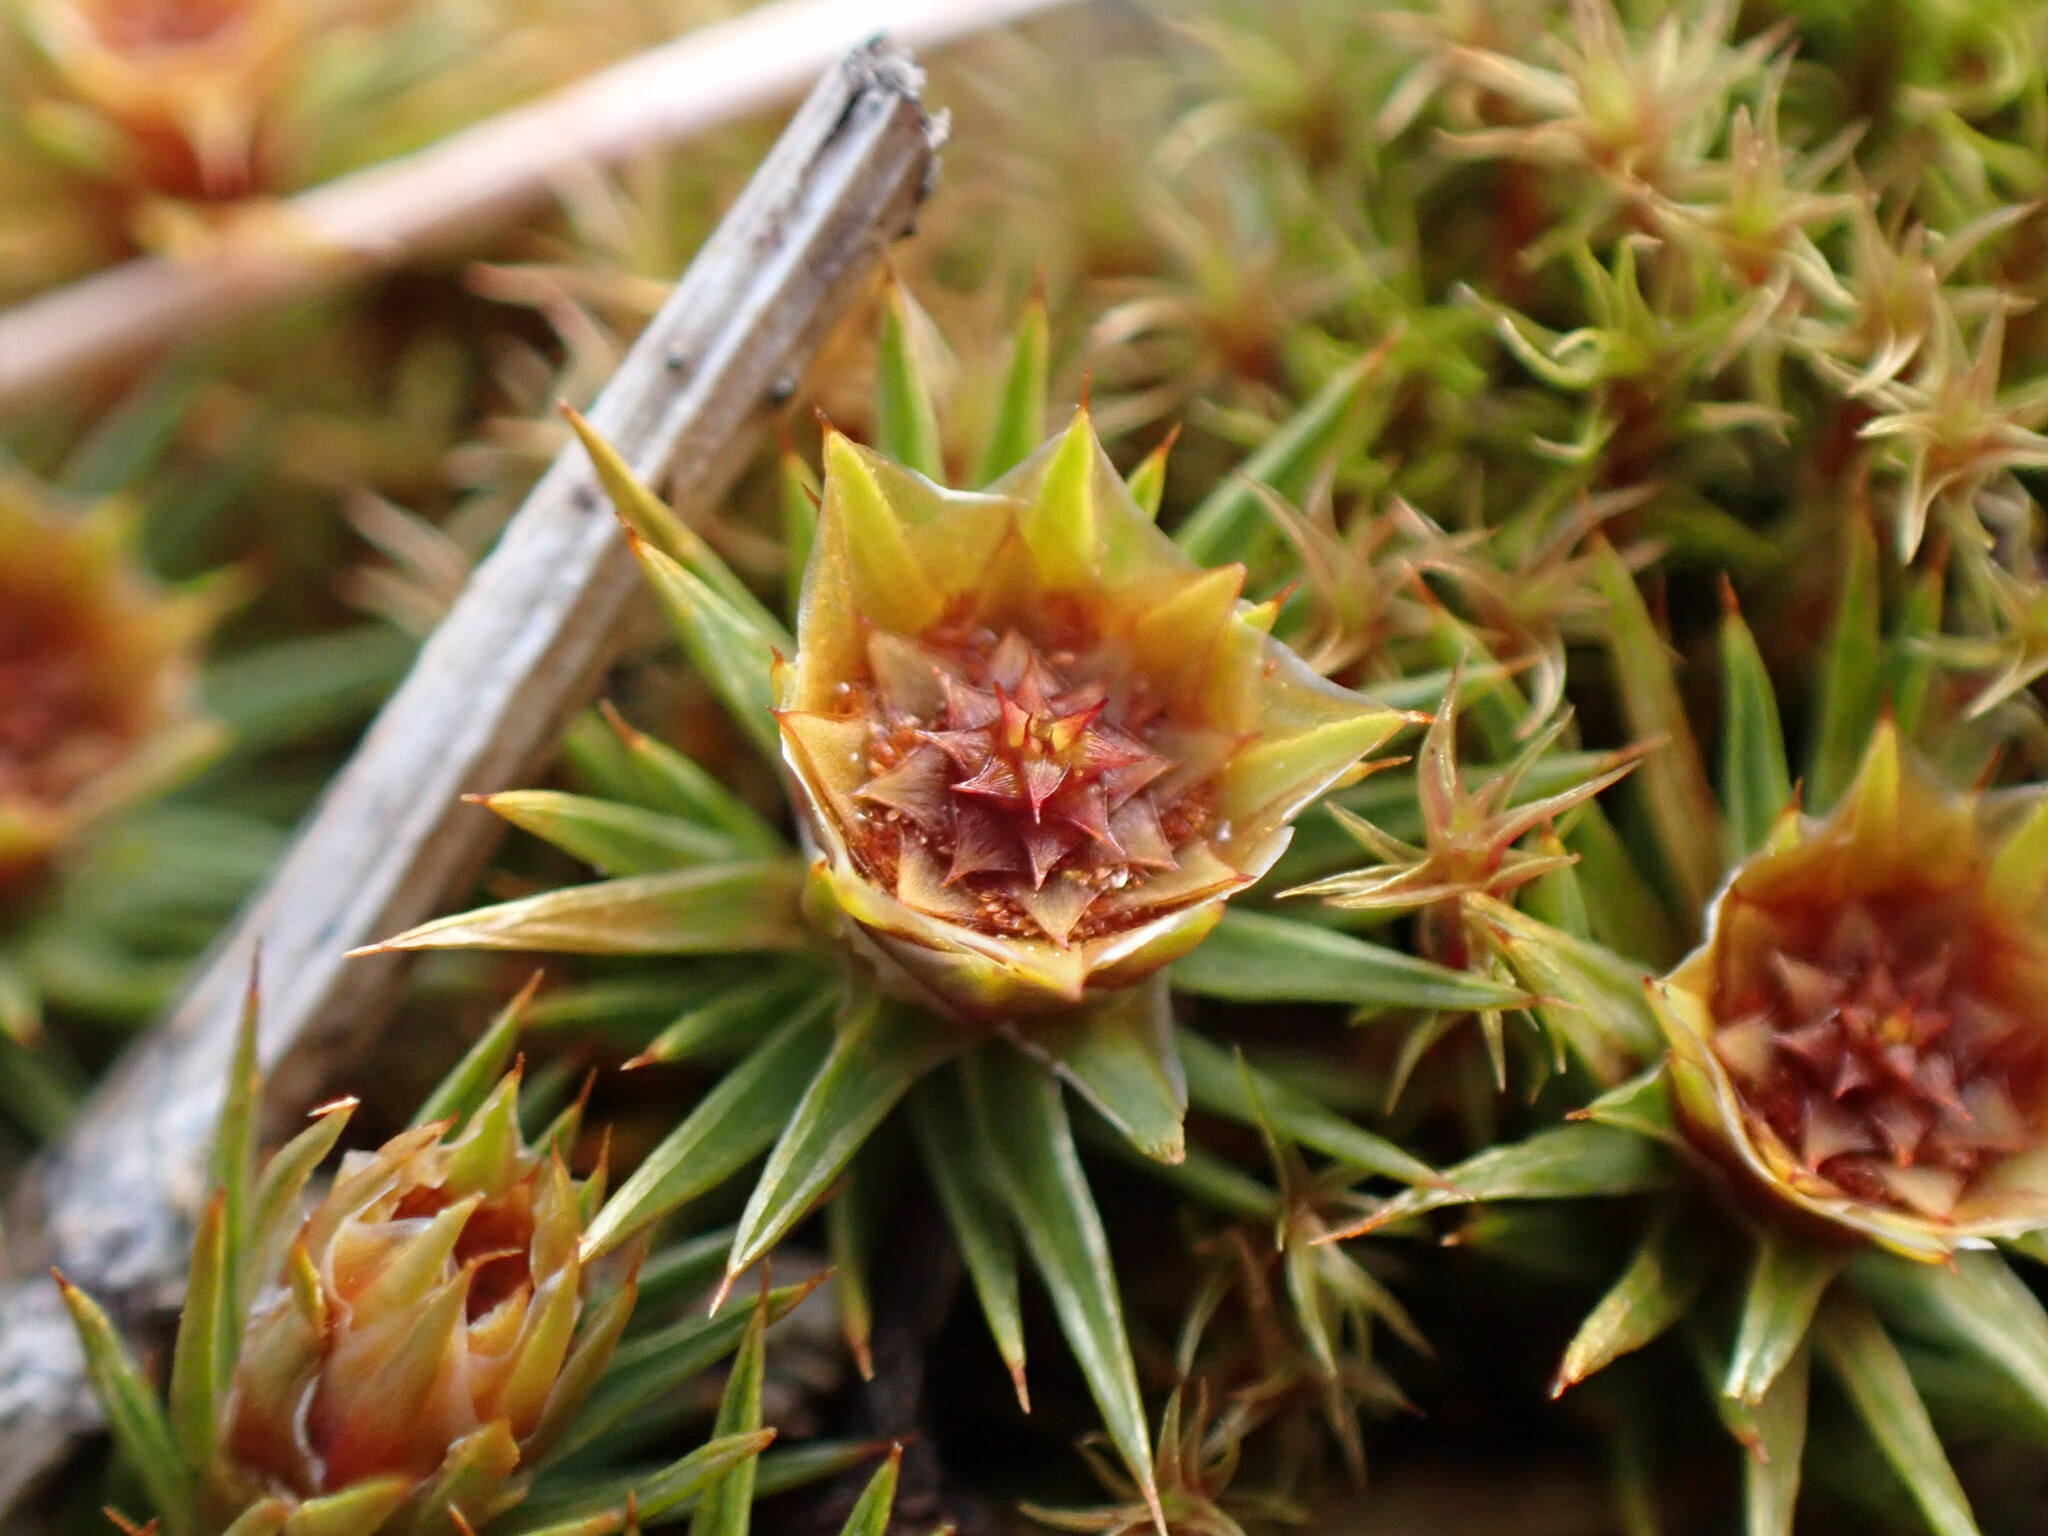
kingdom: Plantae
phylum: Bryophyta
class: Polytrichopsida
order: Polytrichales
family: Polytrichaceae
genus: Polytrichum
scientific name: Polytrichum juniperinum
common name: Juniper haircap moss
